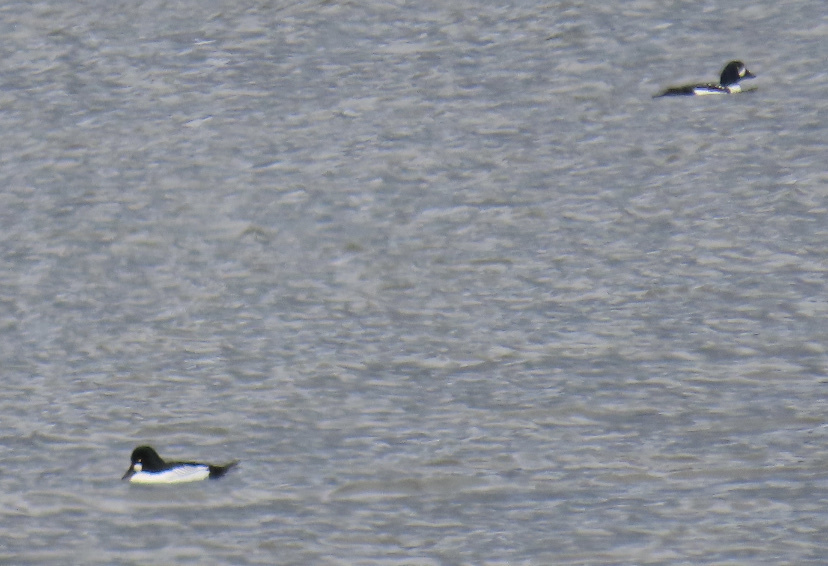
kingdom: Animalia
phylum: Chordata
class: Aves
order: Anseriformes
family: Anatidae
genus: Bucephala
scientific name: Bucephala islandica
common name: Barrow's goldeneye
